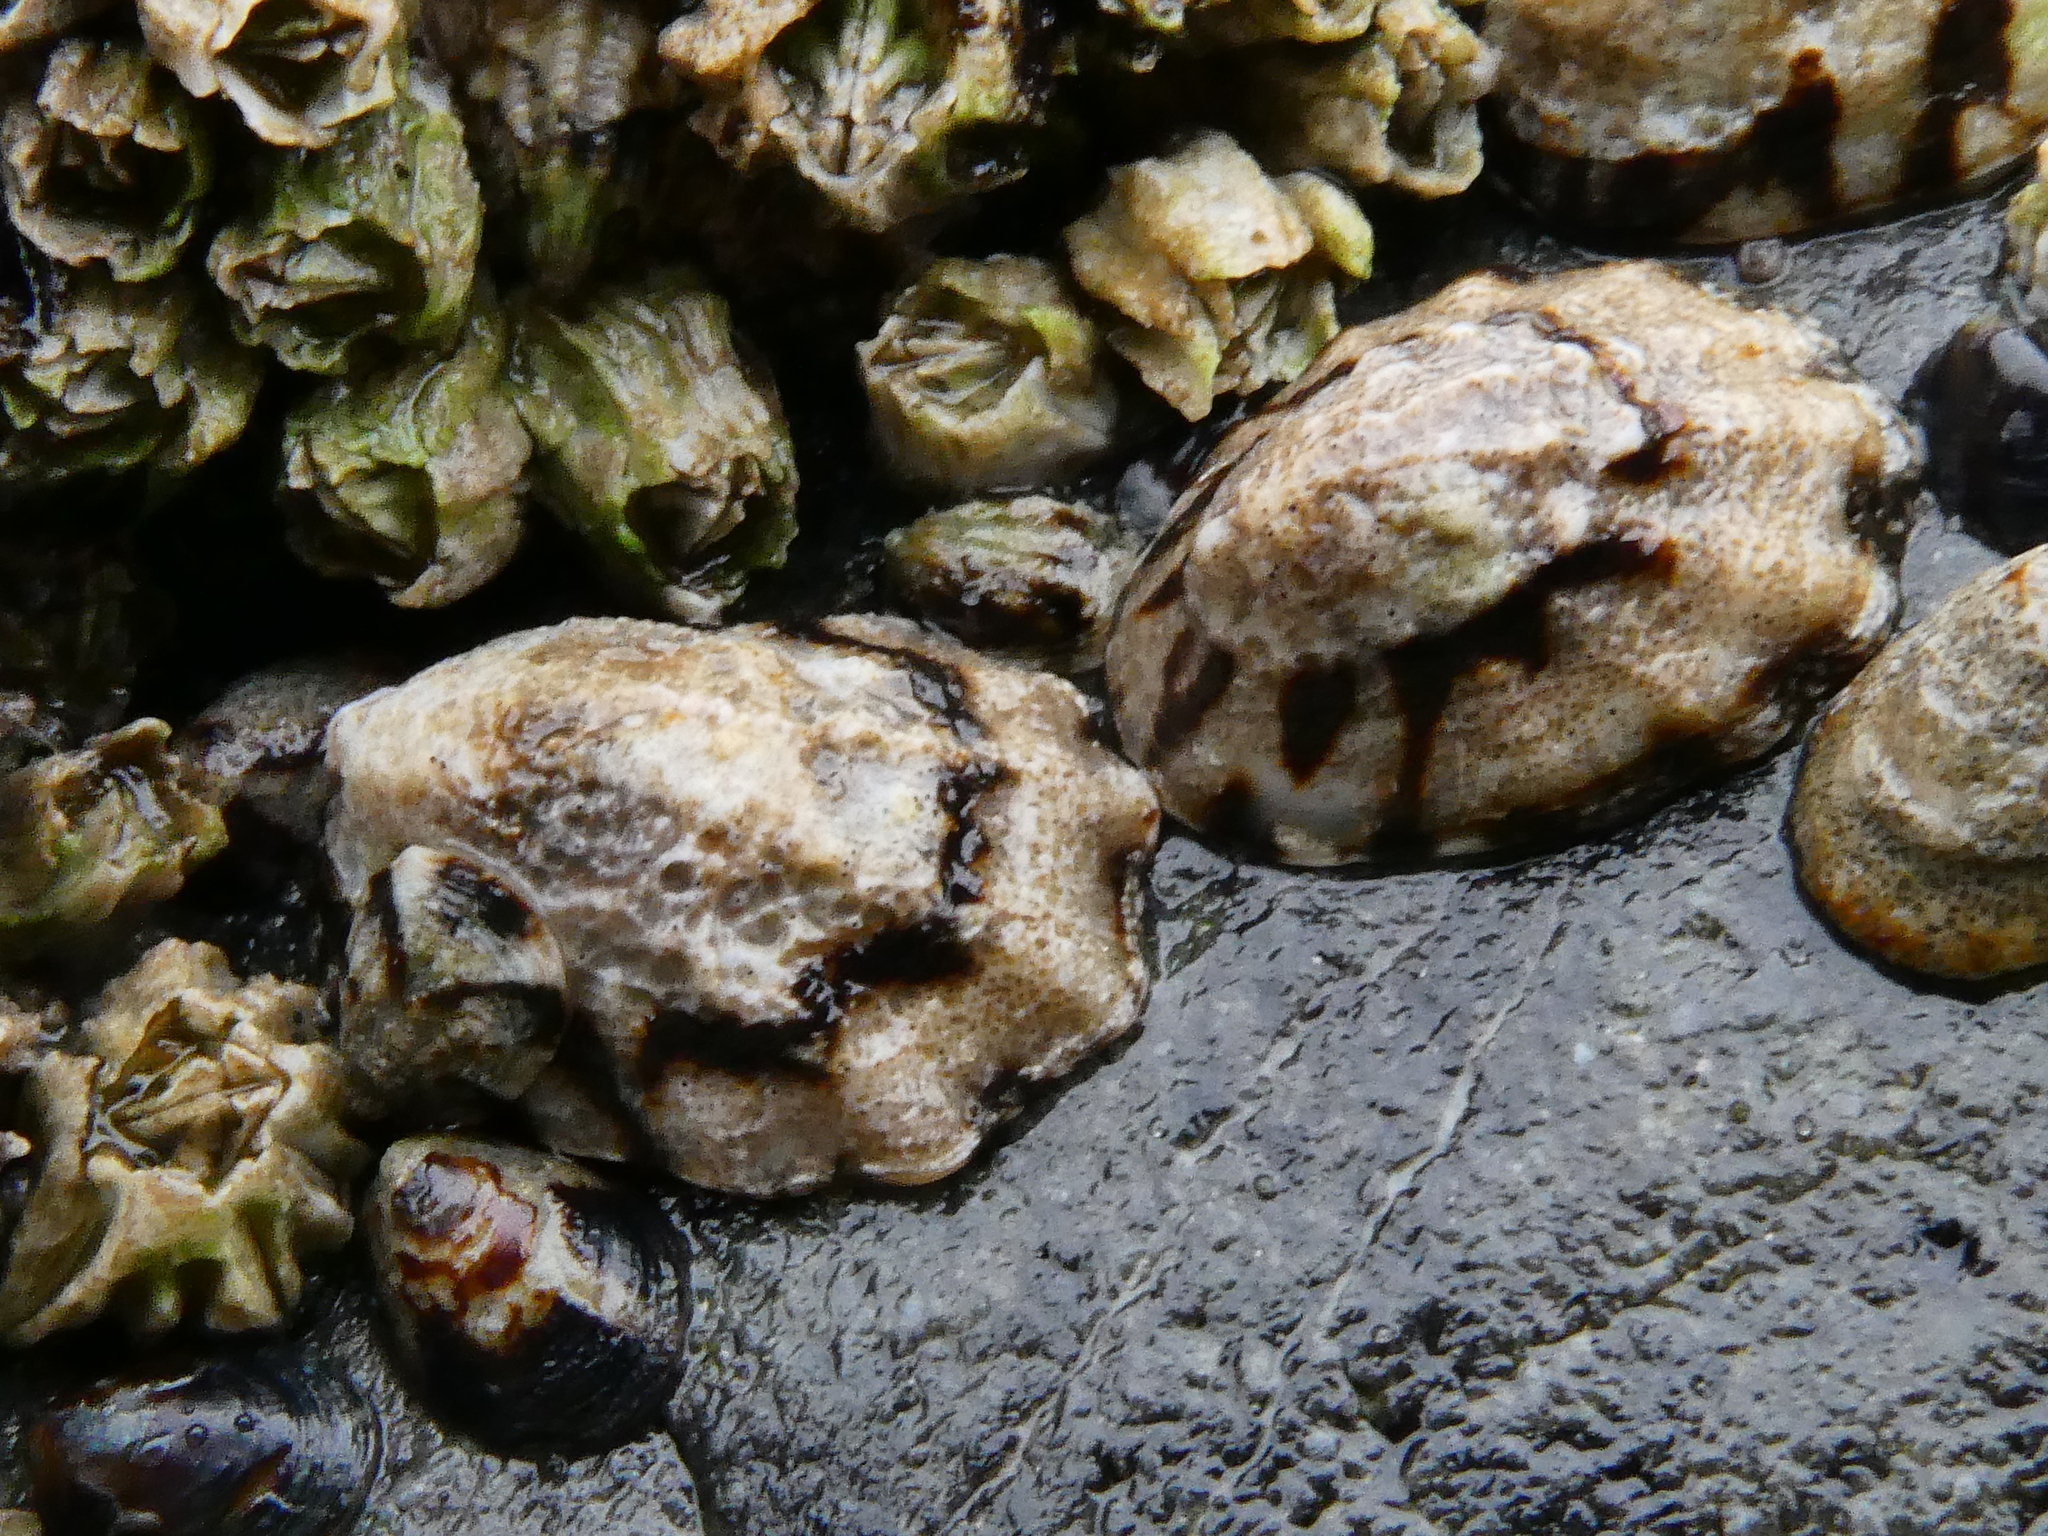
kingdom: Animalia
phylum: Mollusca
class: Gastropoda
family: Lottiidae
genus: Lottia
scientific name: Lottia digitalis
